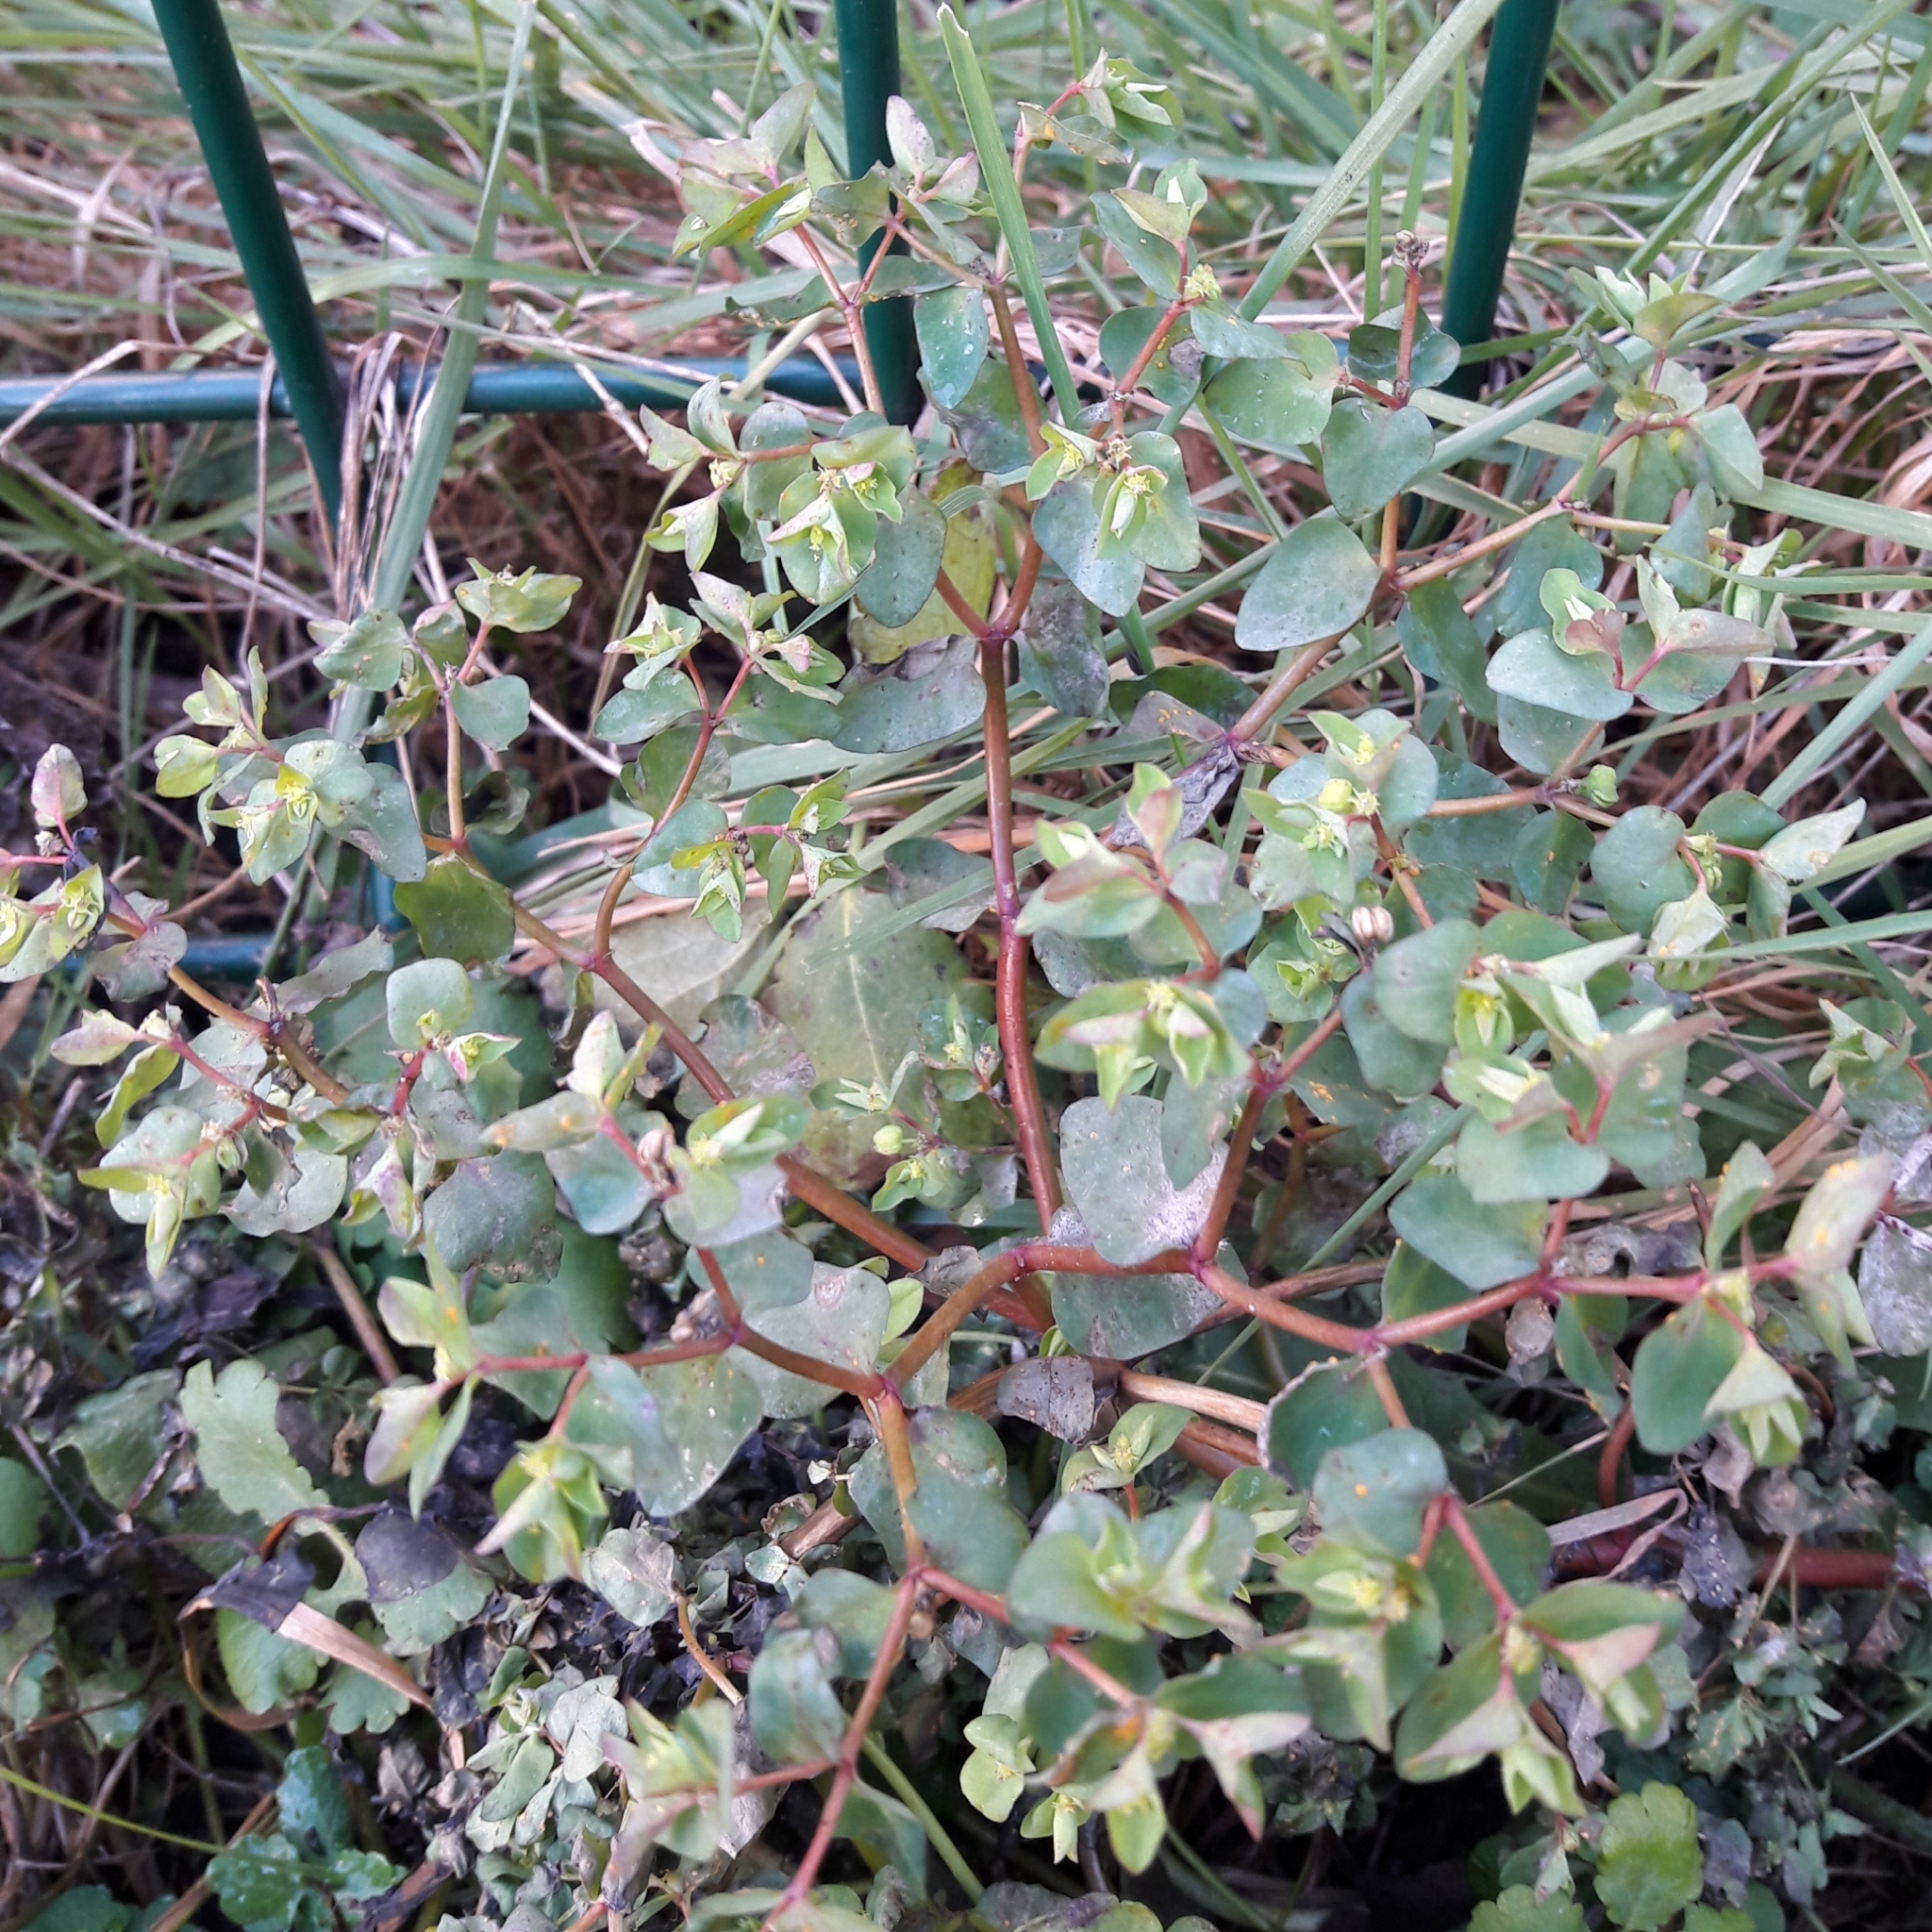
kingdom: Plantae
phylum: Tracheophyta
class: Magnoliopsida
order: Malpighiales
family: Euphorbiaceae
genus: Euphorbia
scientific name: Euphorbia peplus
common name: Petty spurge
